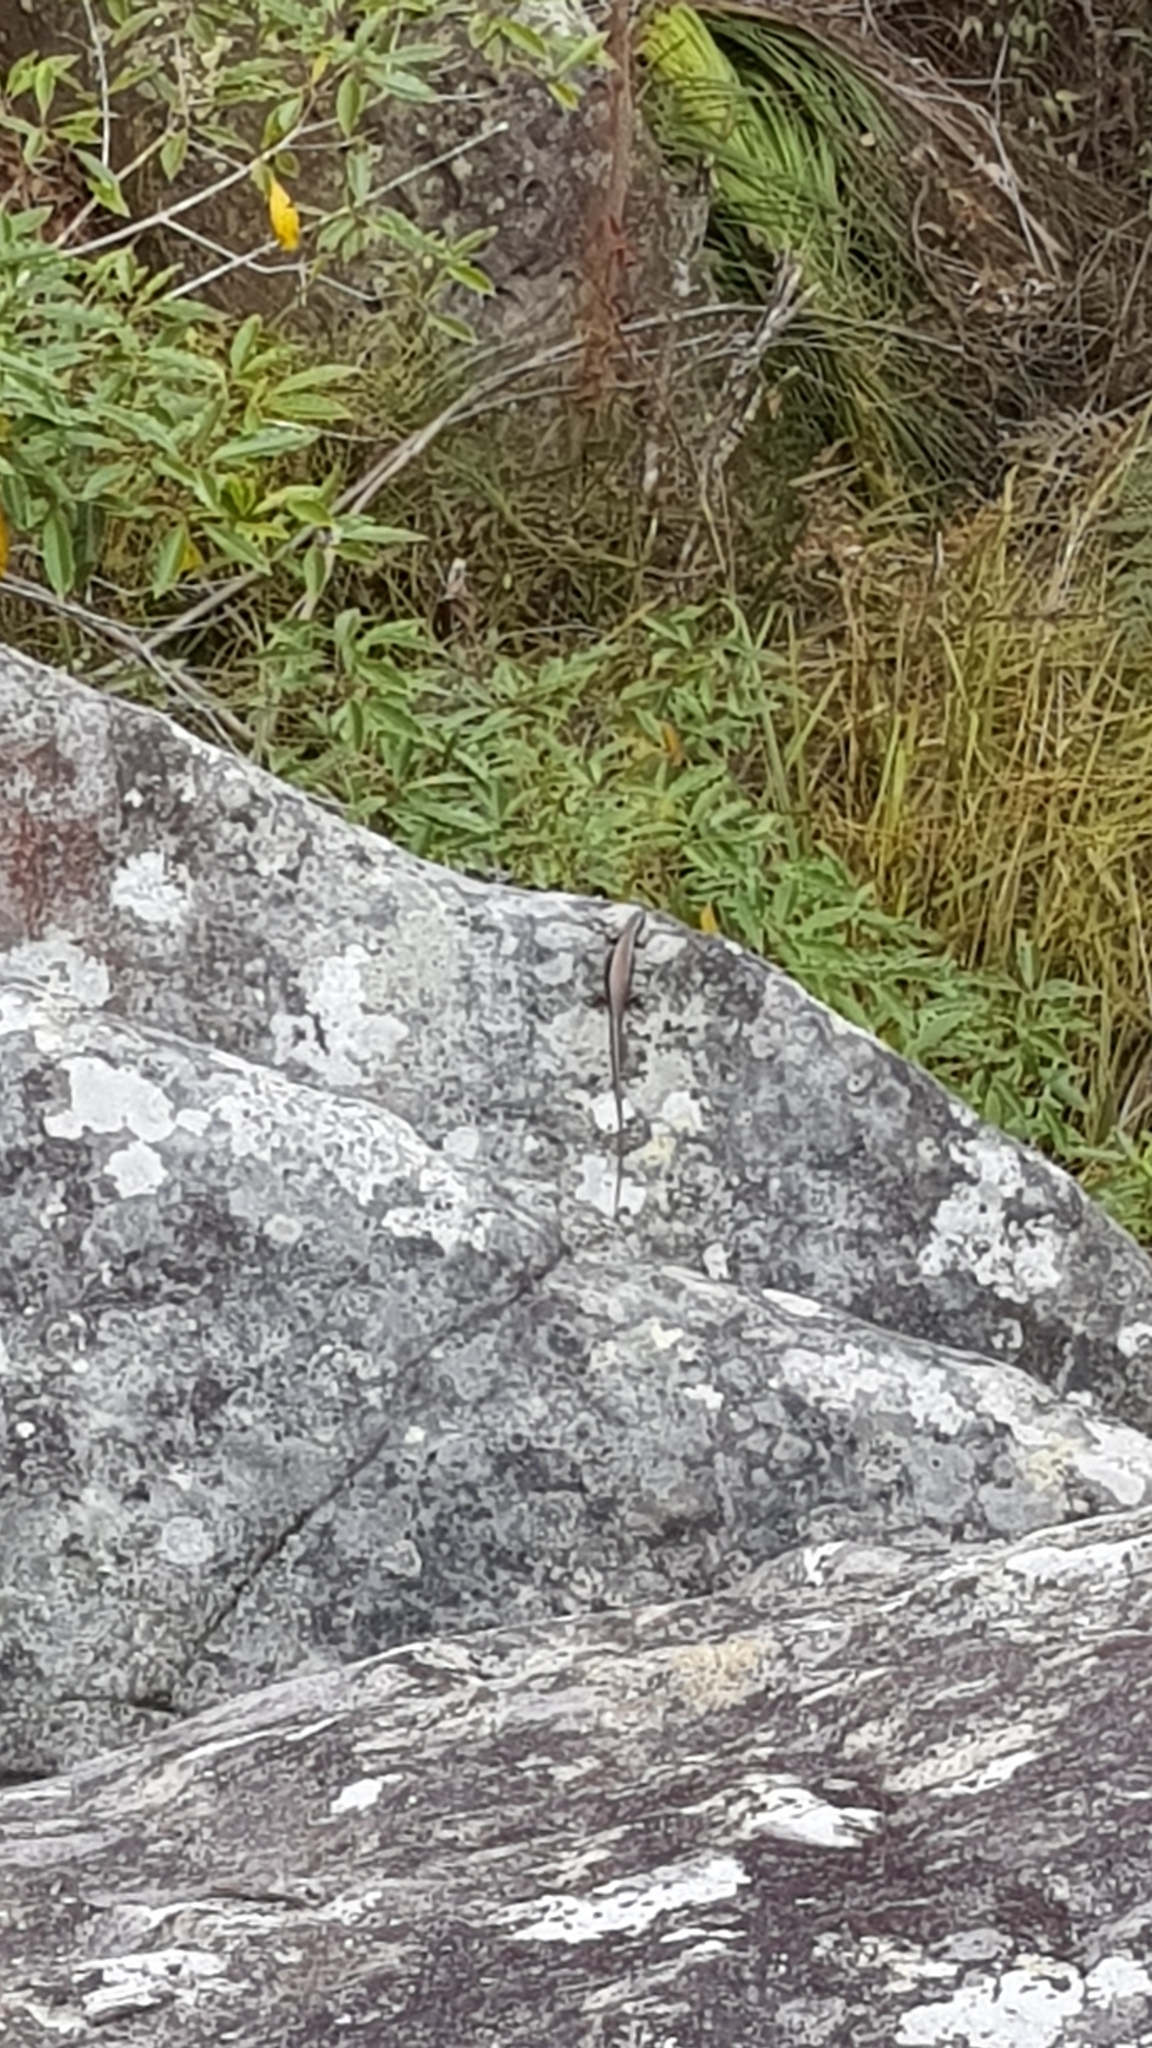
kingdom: Animalia
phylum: Chordata
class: Squamata
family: Scincidae
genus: Eulamprus
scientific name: Eulamprus quoyii
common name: Eastern water skink
